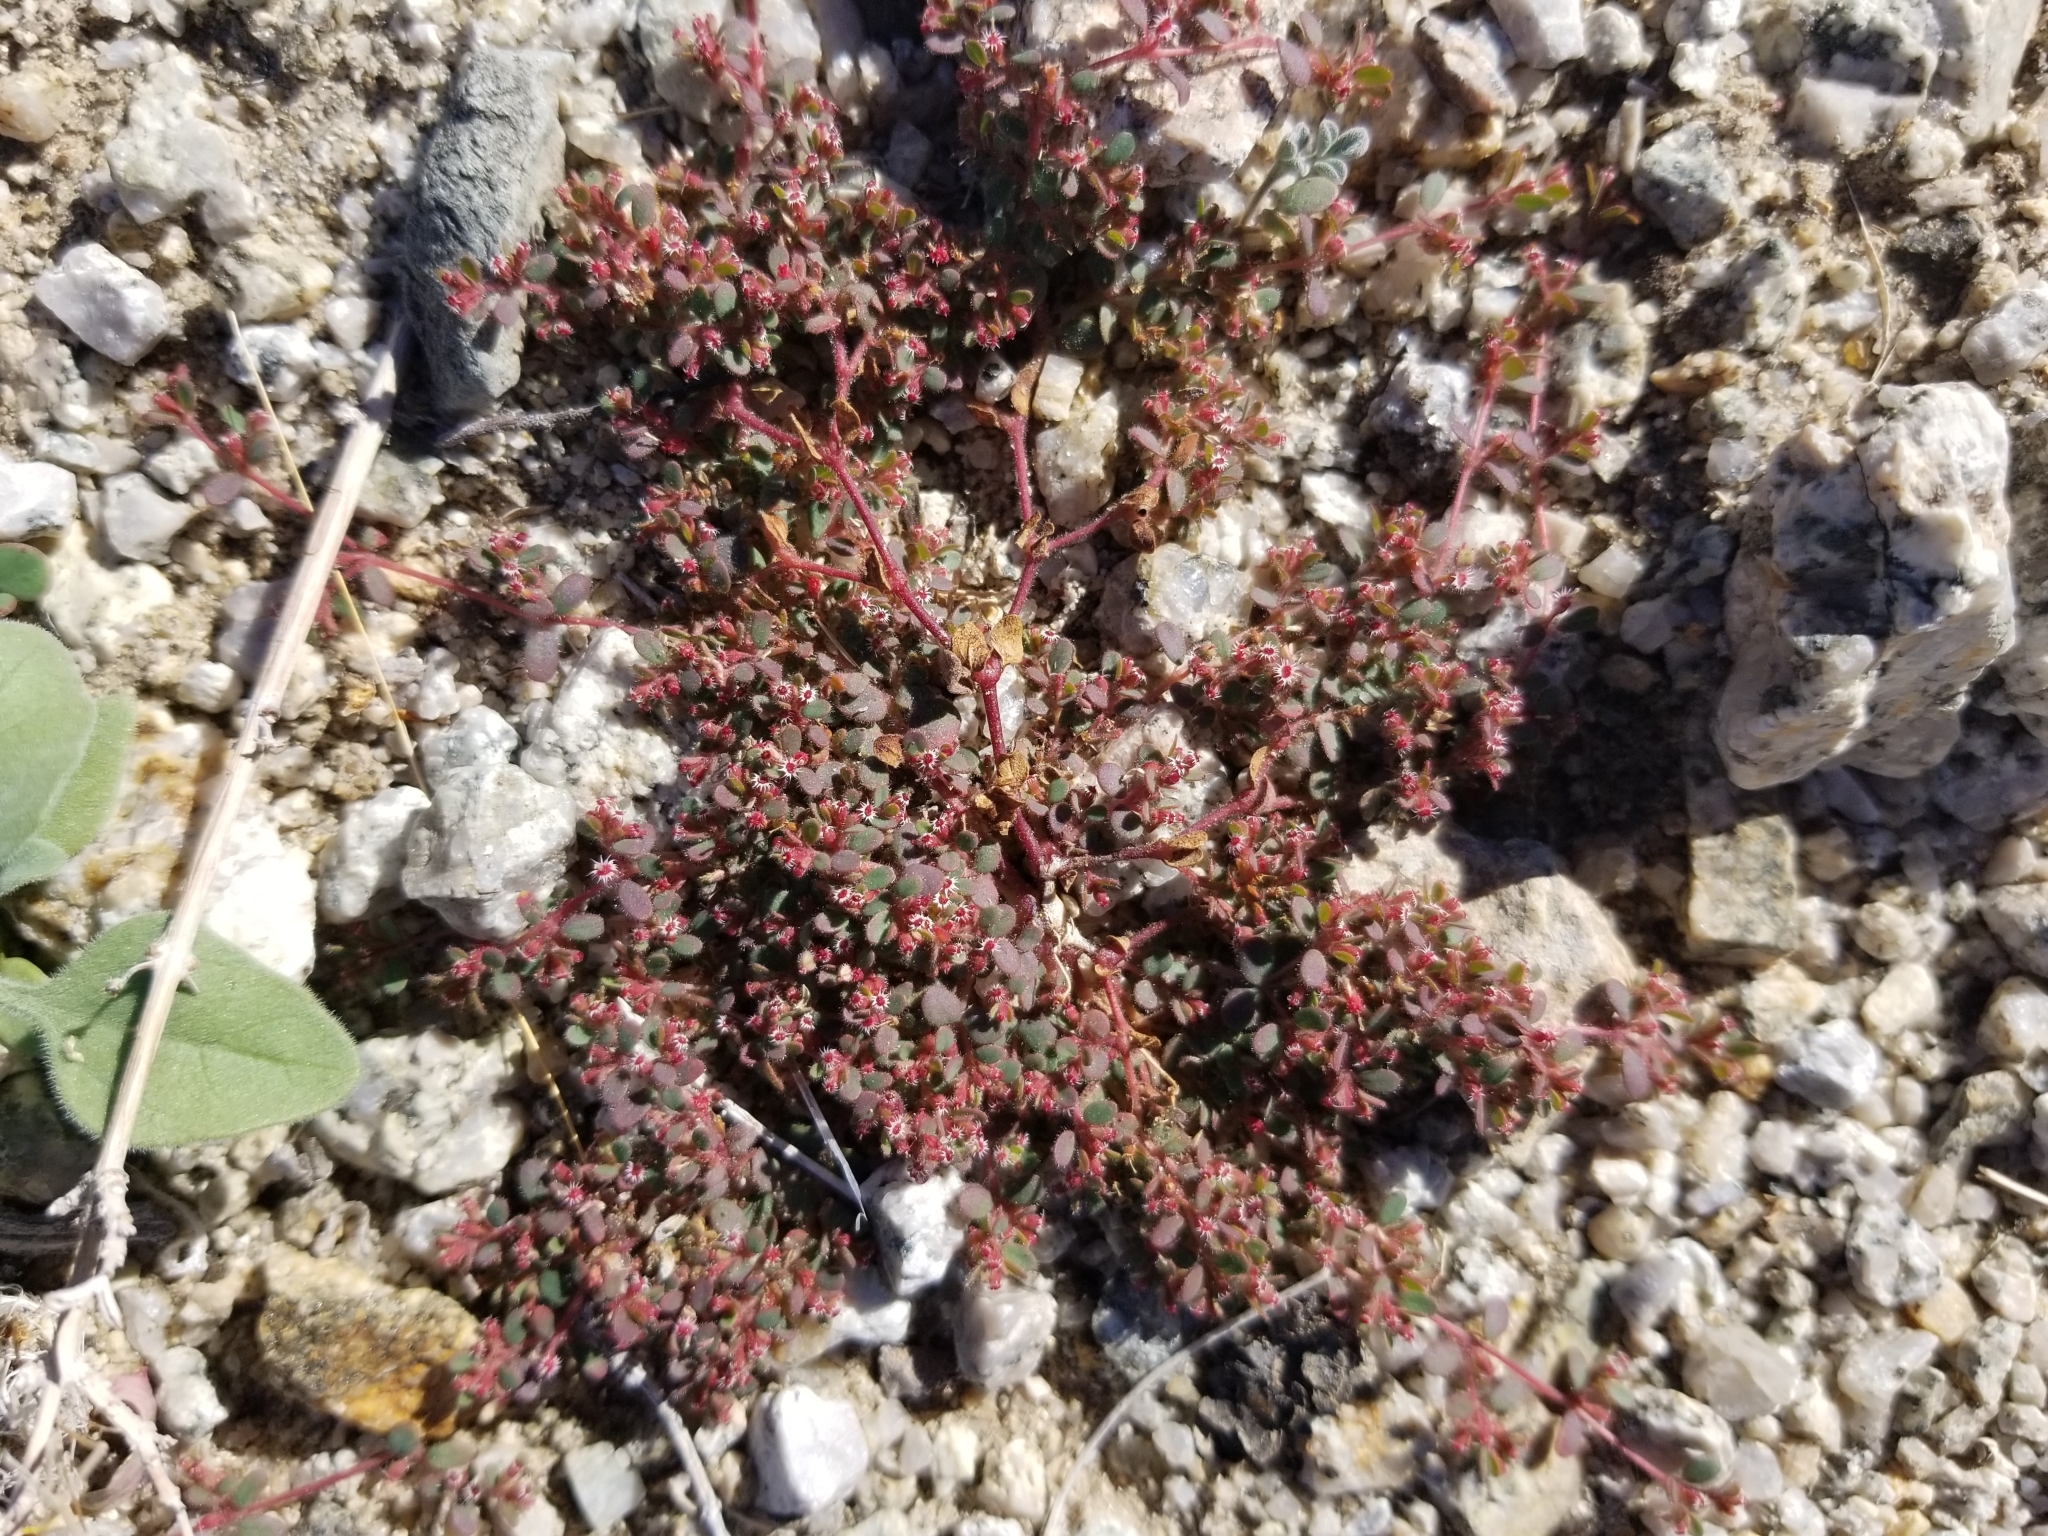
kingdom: Plantae
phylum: Tracheophyta
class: Magnoliopsida
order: Malpighiales
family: Euphorbiaceae
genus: Euphorbia
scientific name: Euphorbia setiloba
